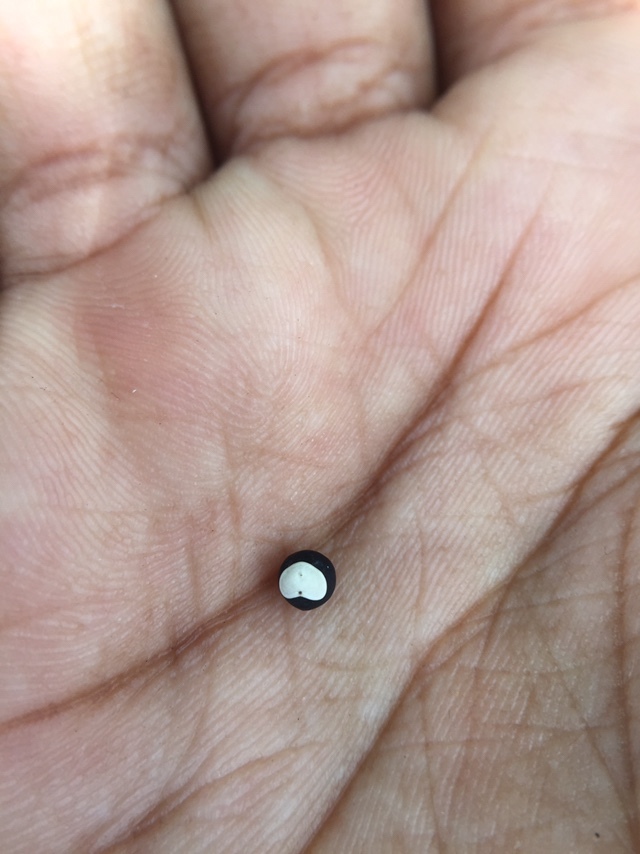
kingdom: Plantae
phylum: Tracheophyta
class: Magnoliopsida
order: Sapindales
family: Sapindaceae
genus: Cardiospermum
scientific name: Cardiospermum halicacabum
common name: Balloon vine
